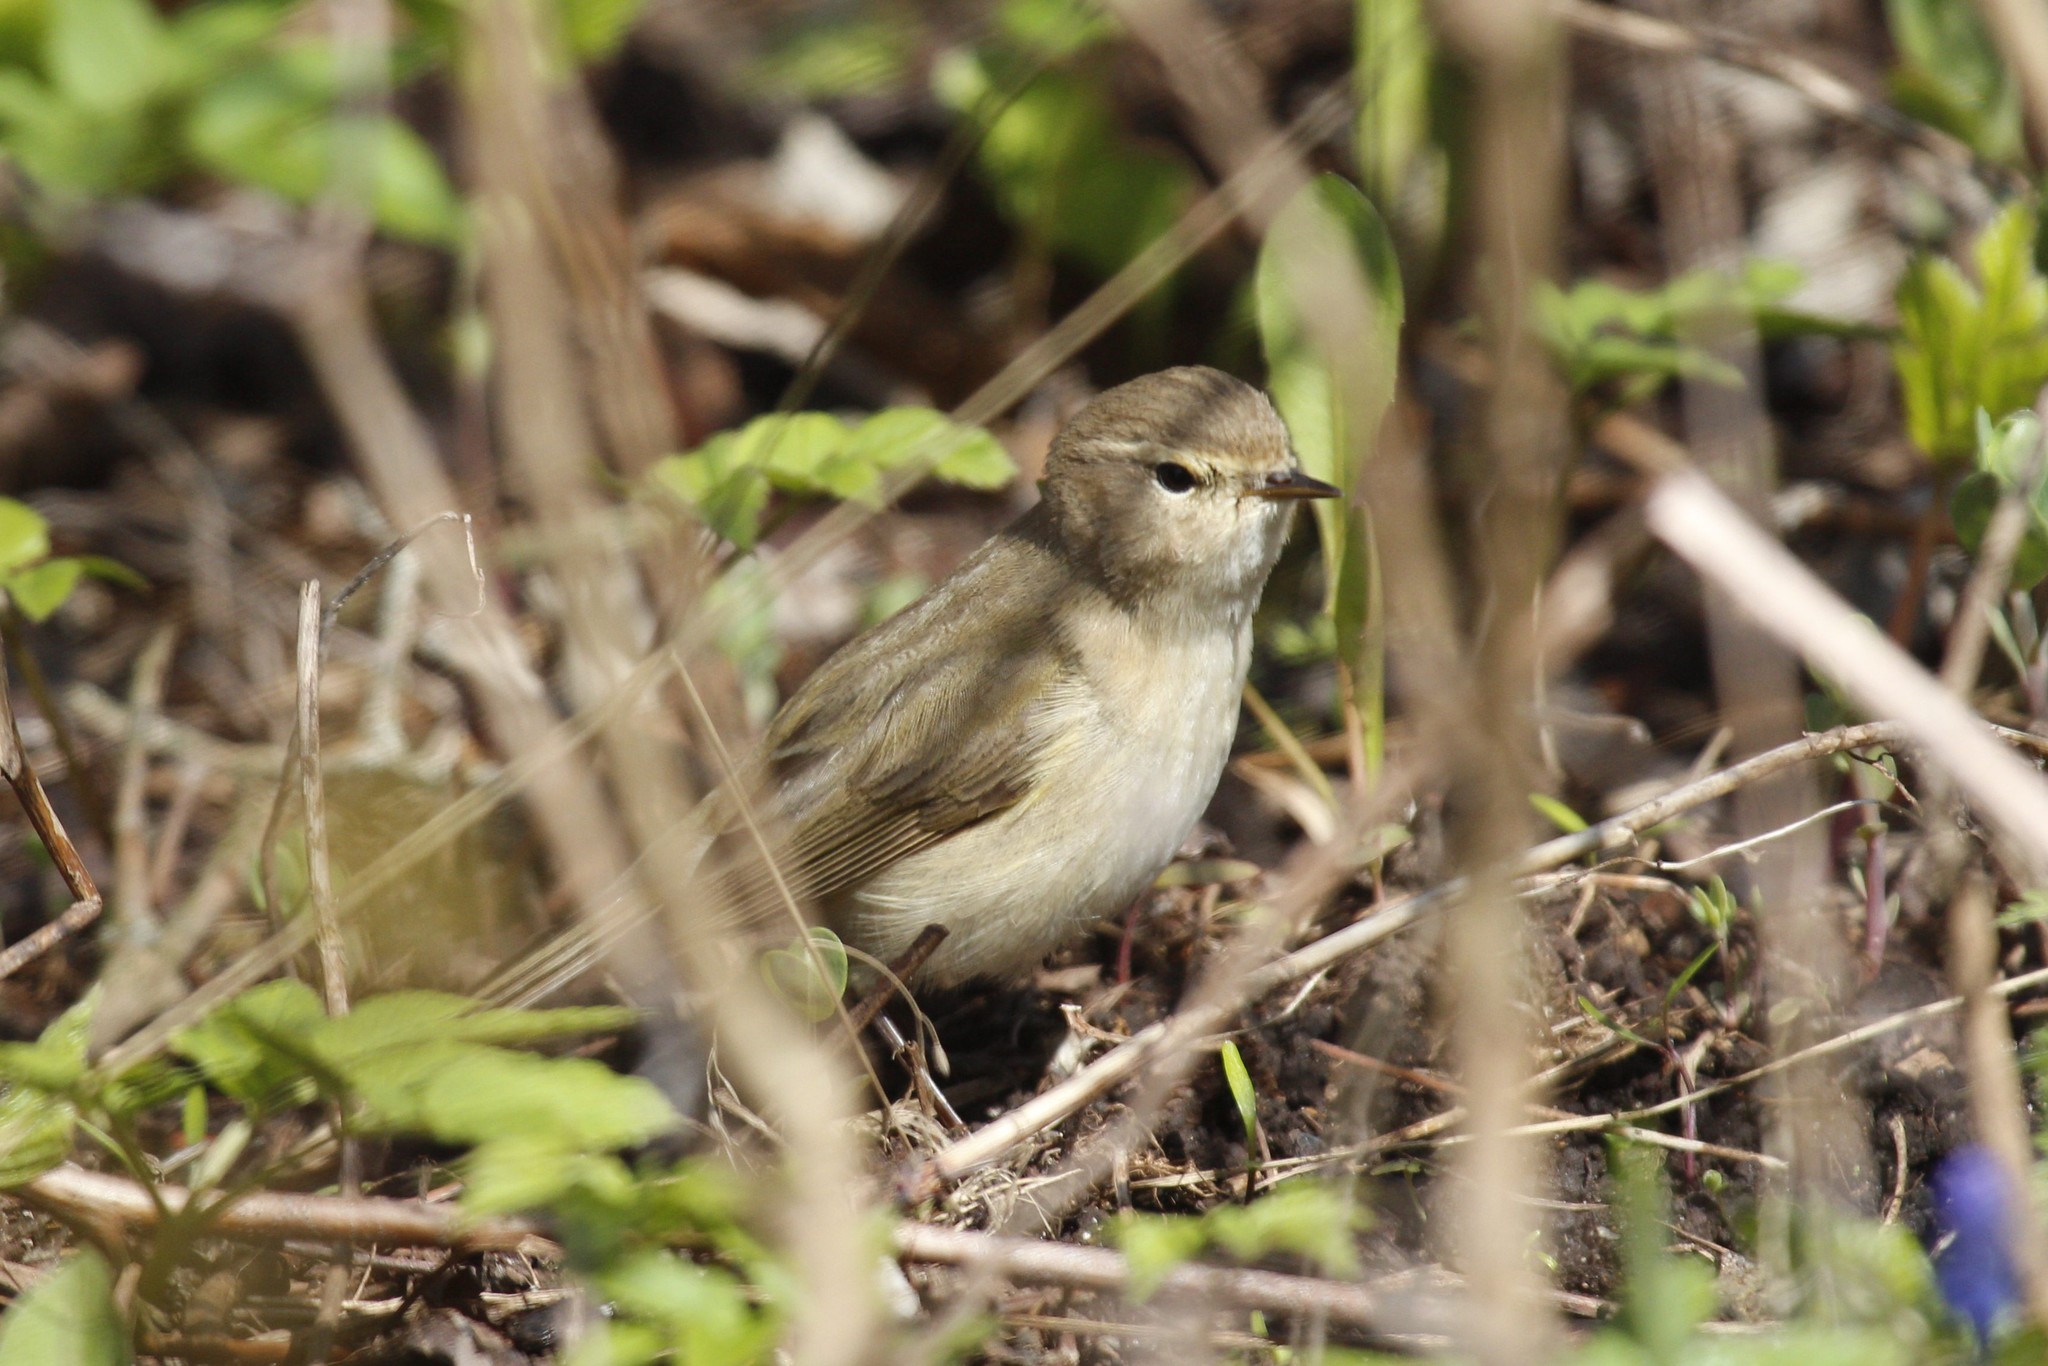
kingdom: Animalia
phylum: Chordata
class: Aves
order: Passeriformes
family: Phylloscopidae
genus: Phylloscopus
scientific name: Phylloscopus collybita
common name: Common chiffchaff
